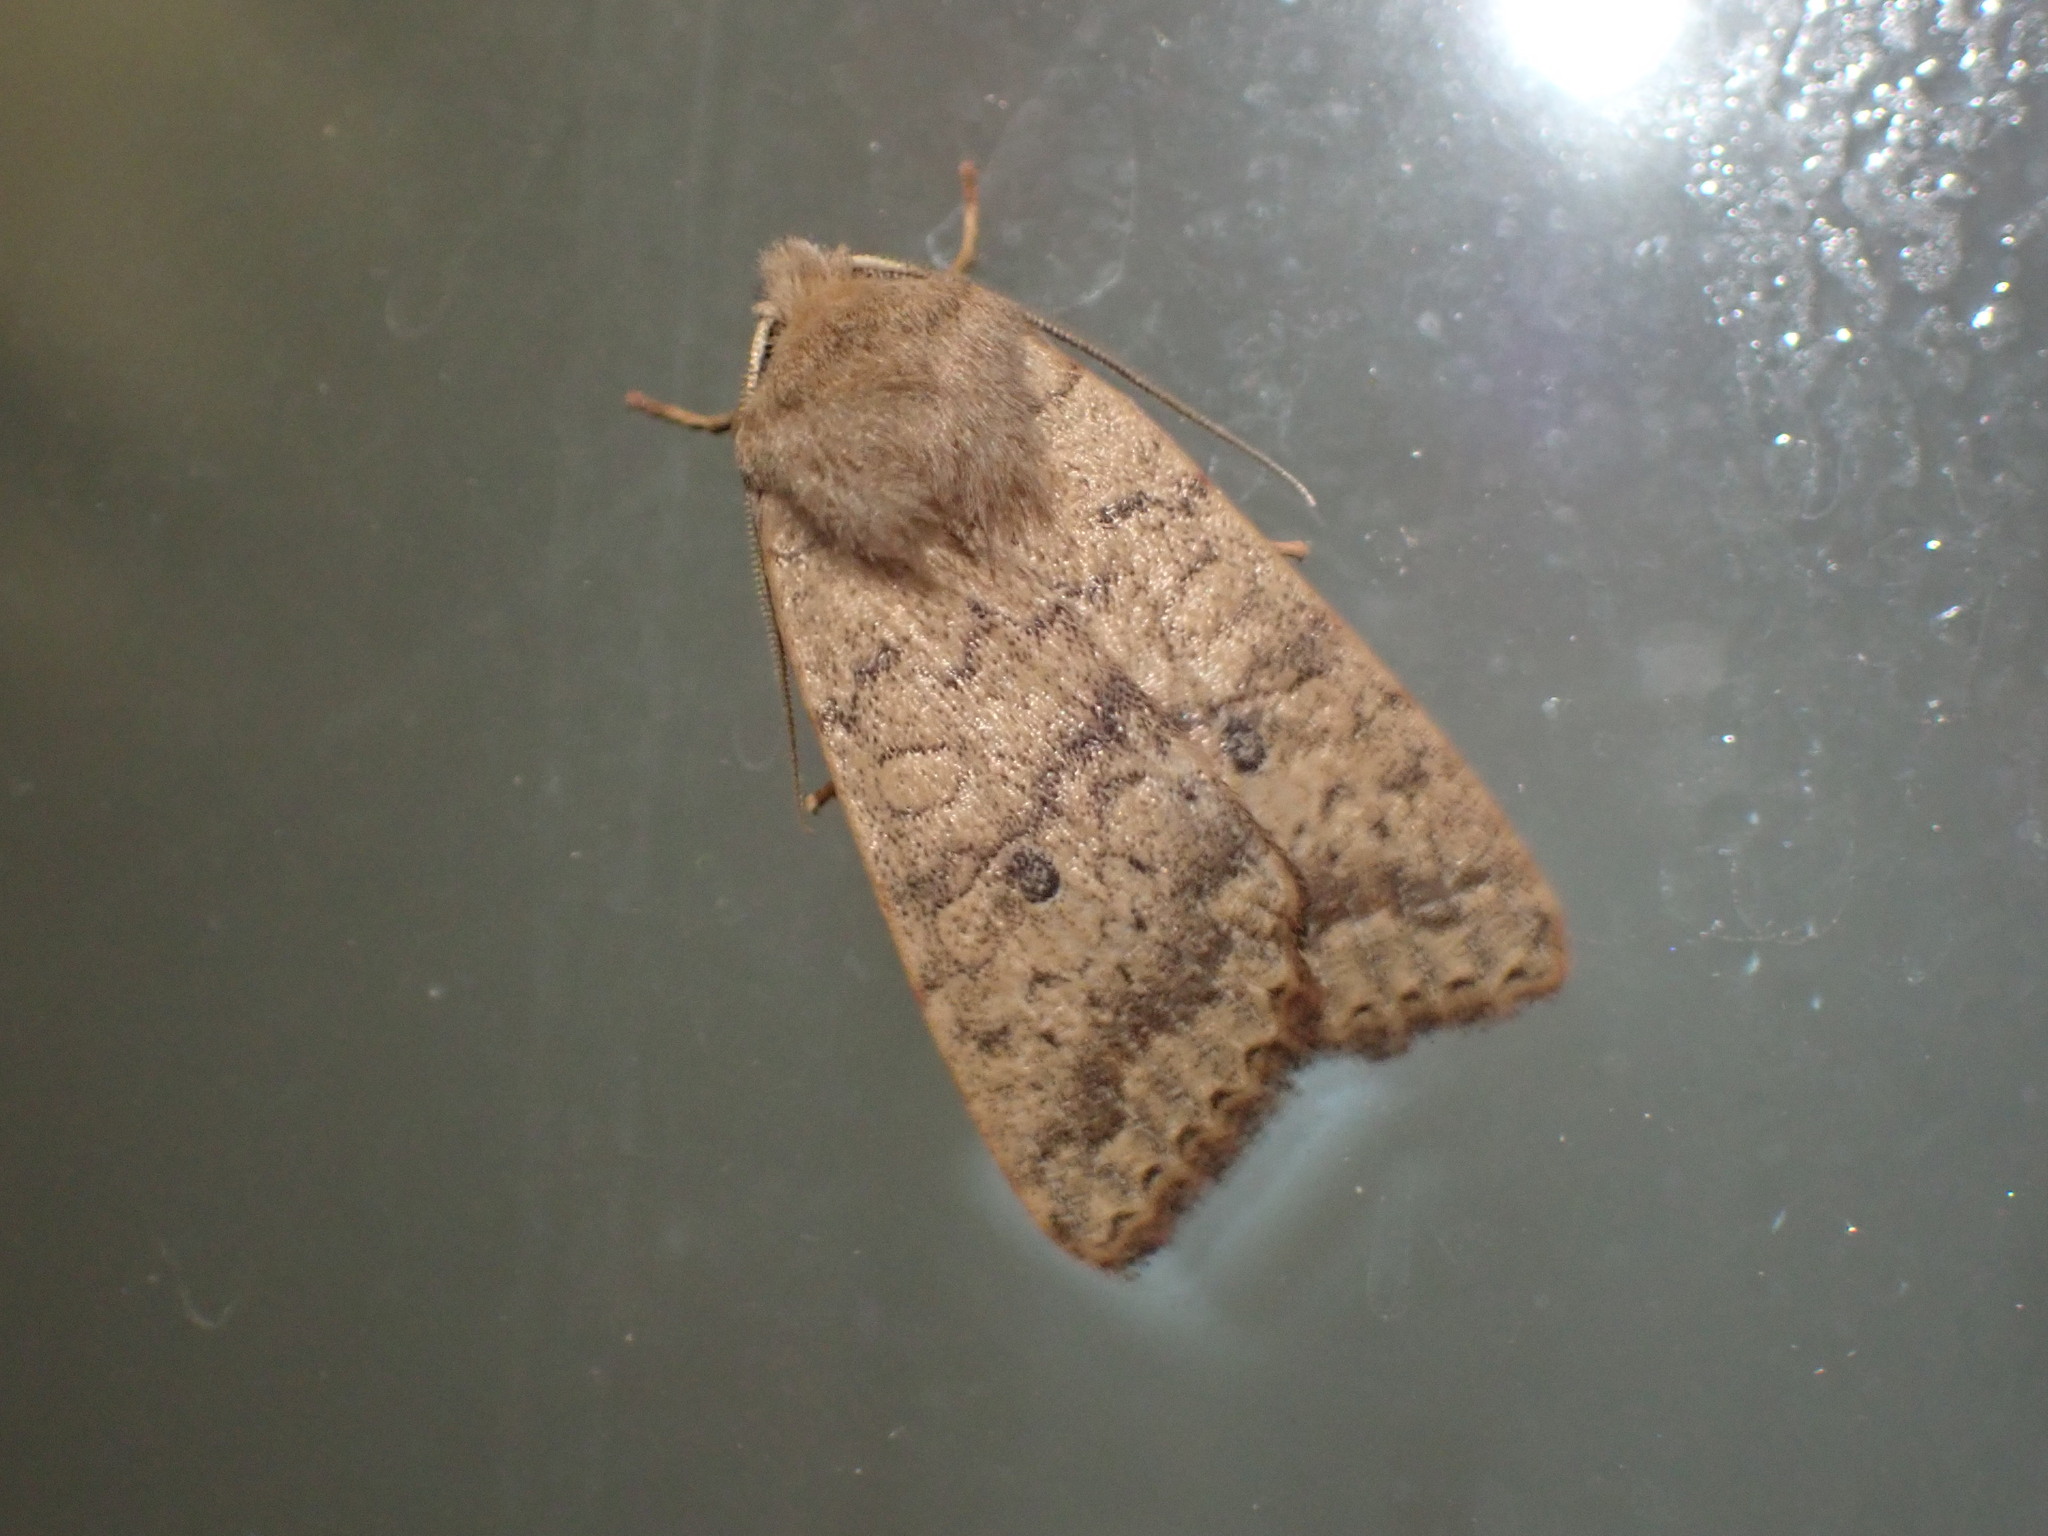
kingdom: Animalia
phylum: Arthropoda
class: Insecta
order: Lepidoptera
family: Noctuidae
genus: Agrochola
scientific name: Agrochola bicolorago
